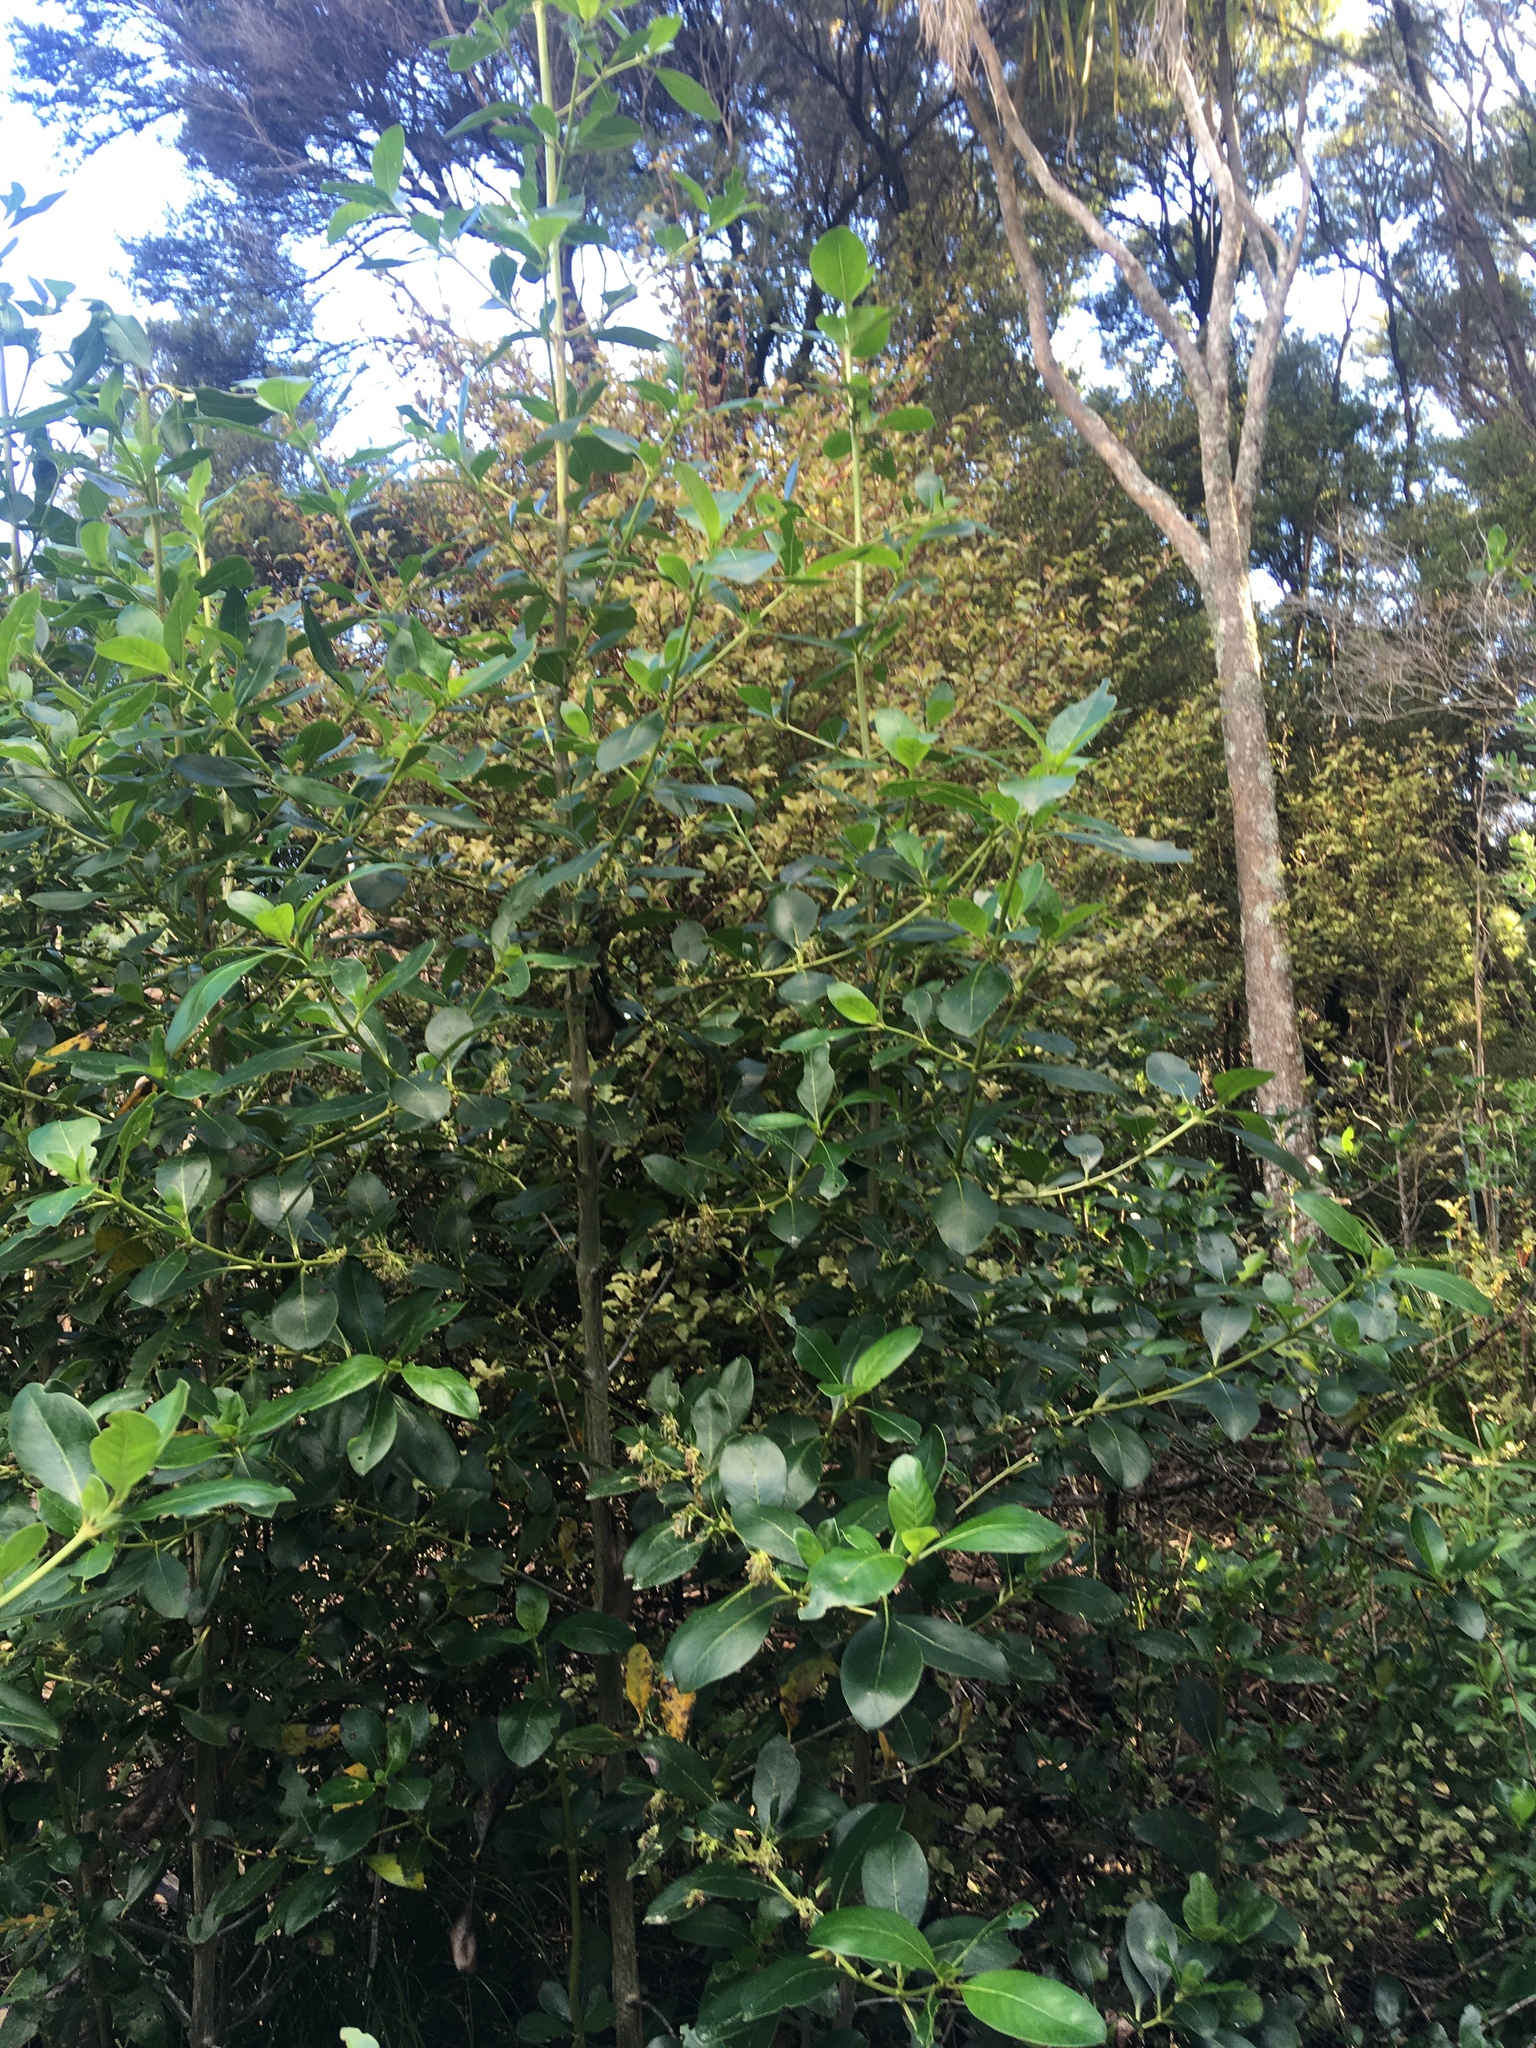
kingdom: Plantae
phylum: Tracheophyta
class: Magnoliopsida
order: Ericales
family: Primulaceae
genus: Myrsine
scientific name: Myrsine australis
